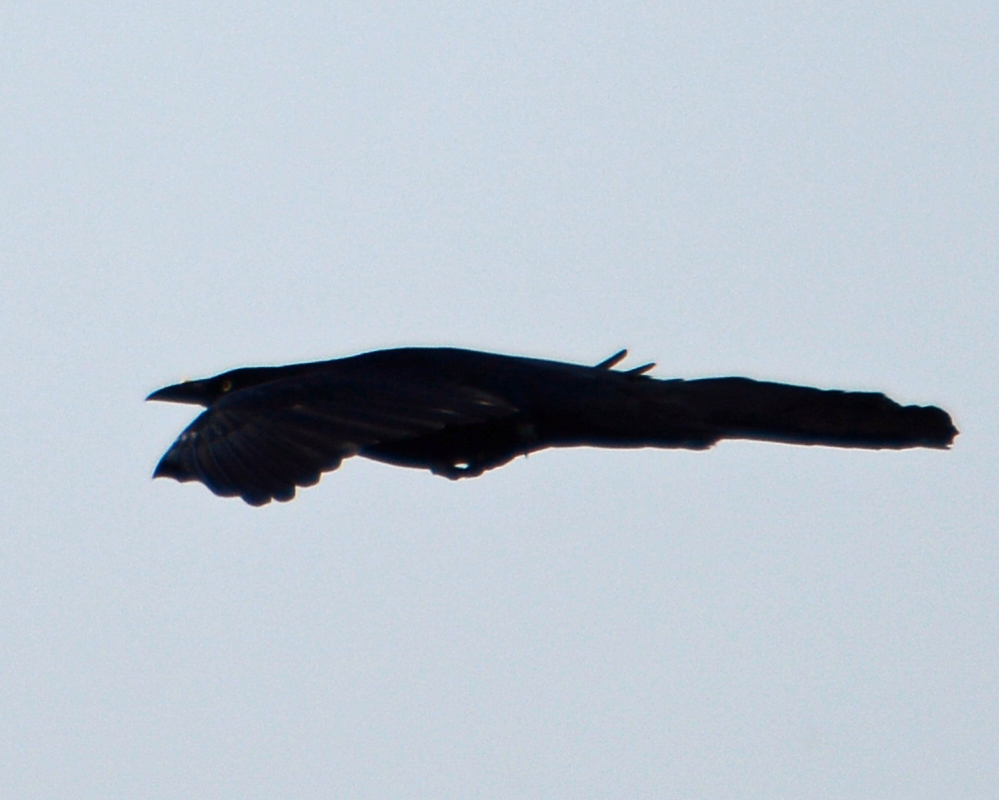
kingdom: Animalia
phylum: Chordata
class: Aves
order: Passeriformes
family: Icteridae
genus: Quiscalus
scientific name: Quiscalus mexicanus
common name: Great-tailed grackle
